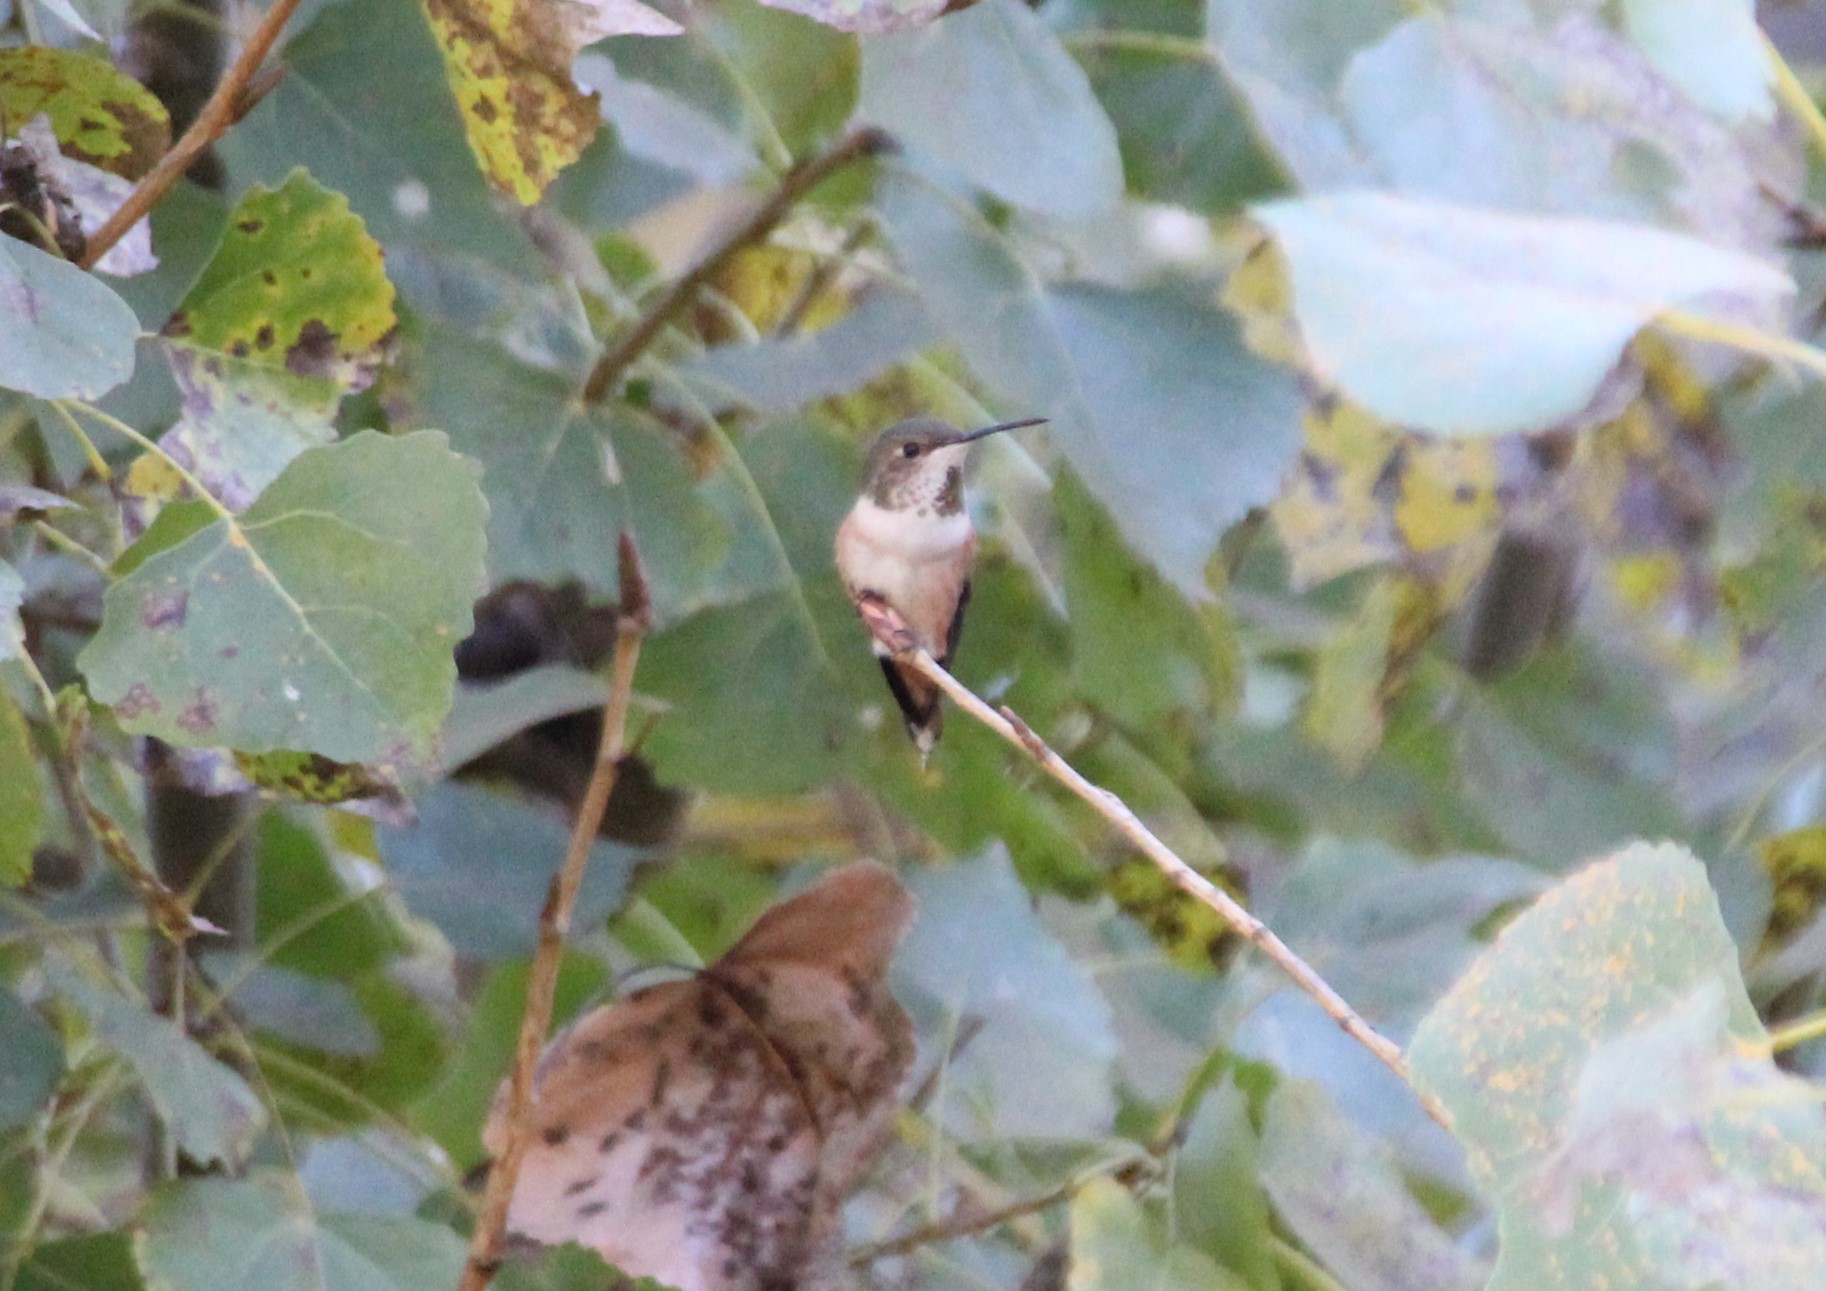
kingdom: Animalia
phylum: Chordata
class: Aves
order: Apodiformes
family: Trochilidae
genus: Selasphorus
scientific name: Selasphorus
